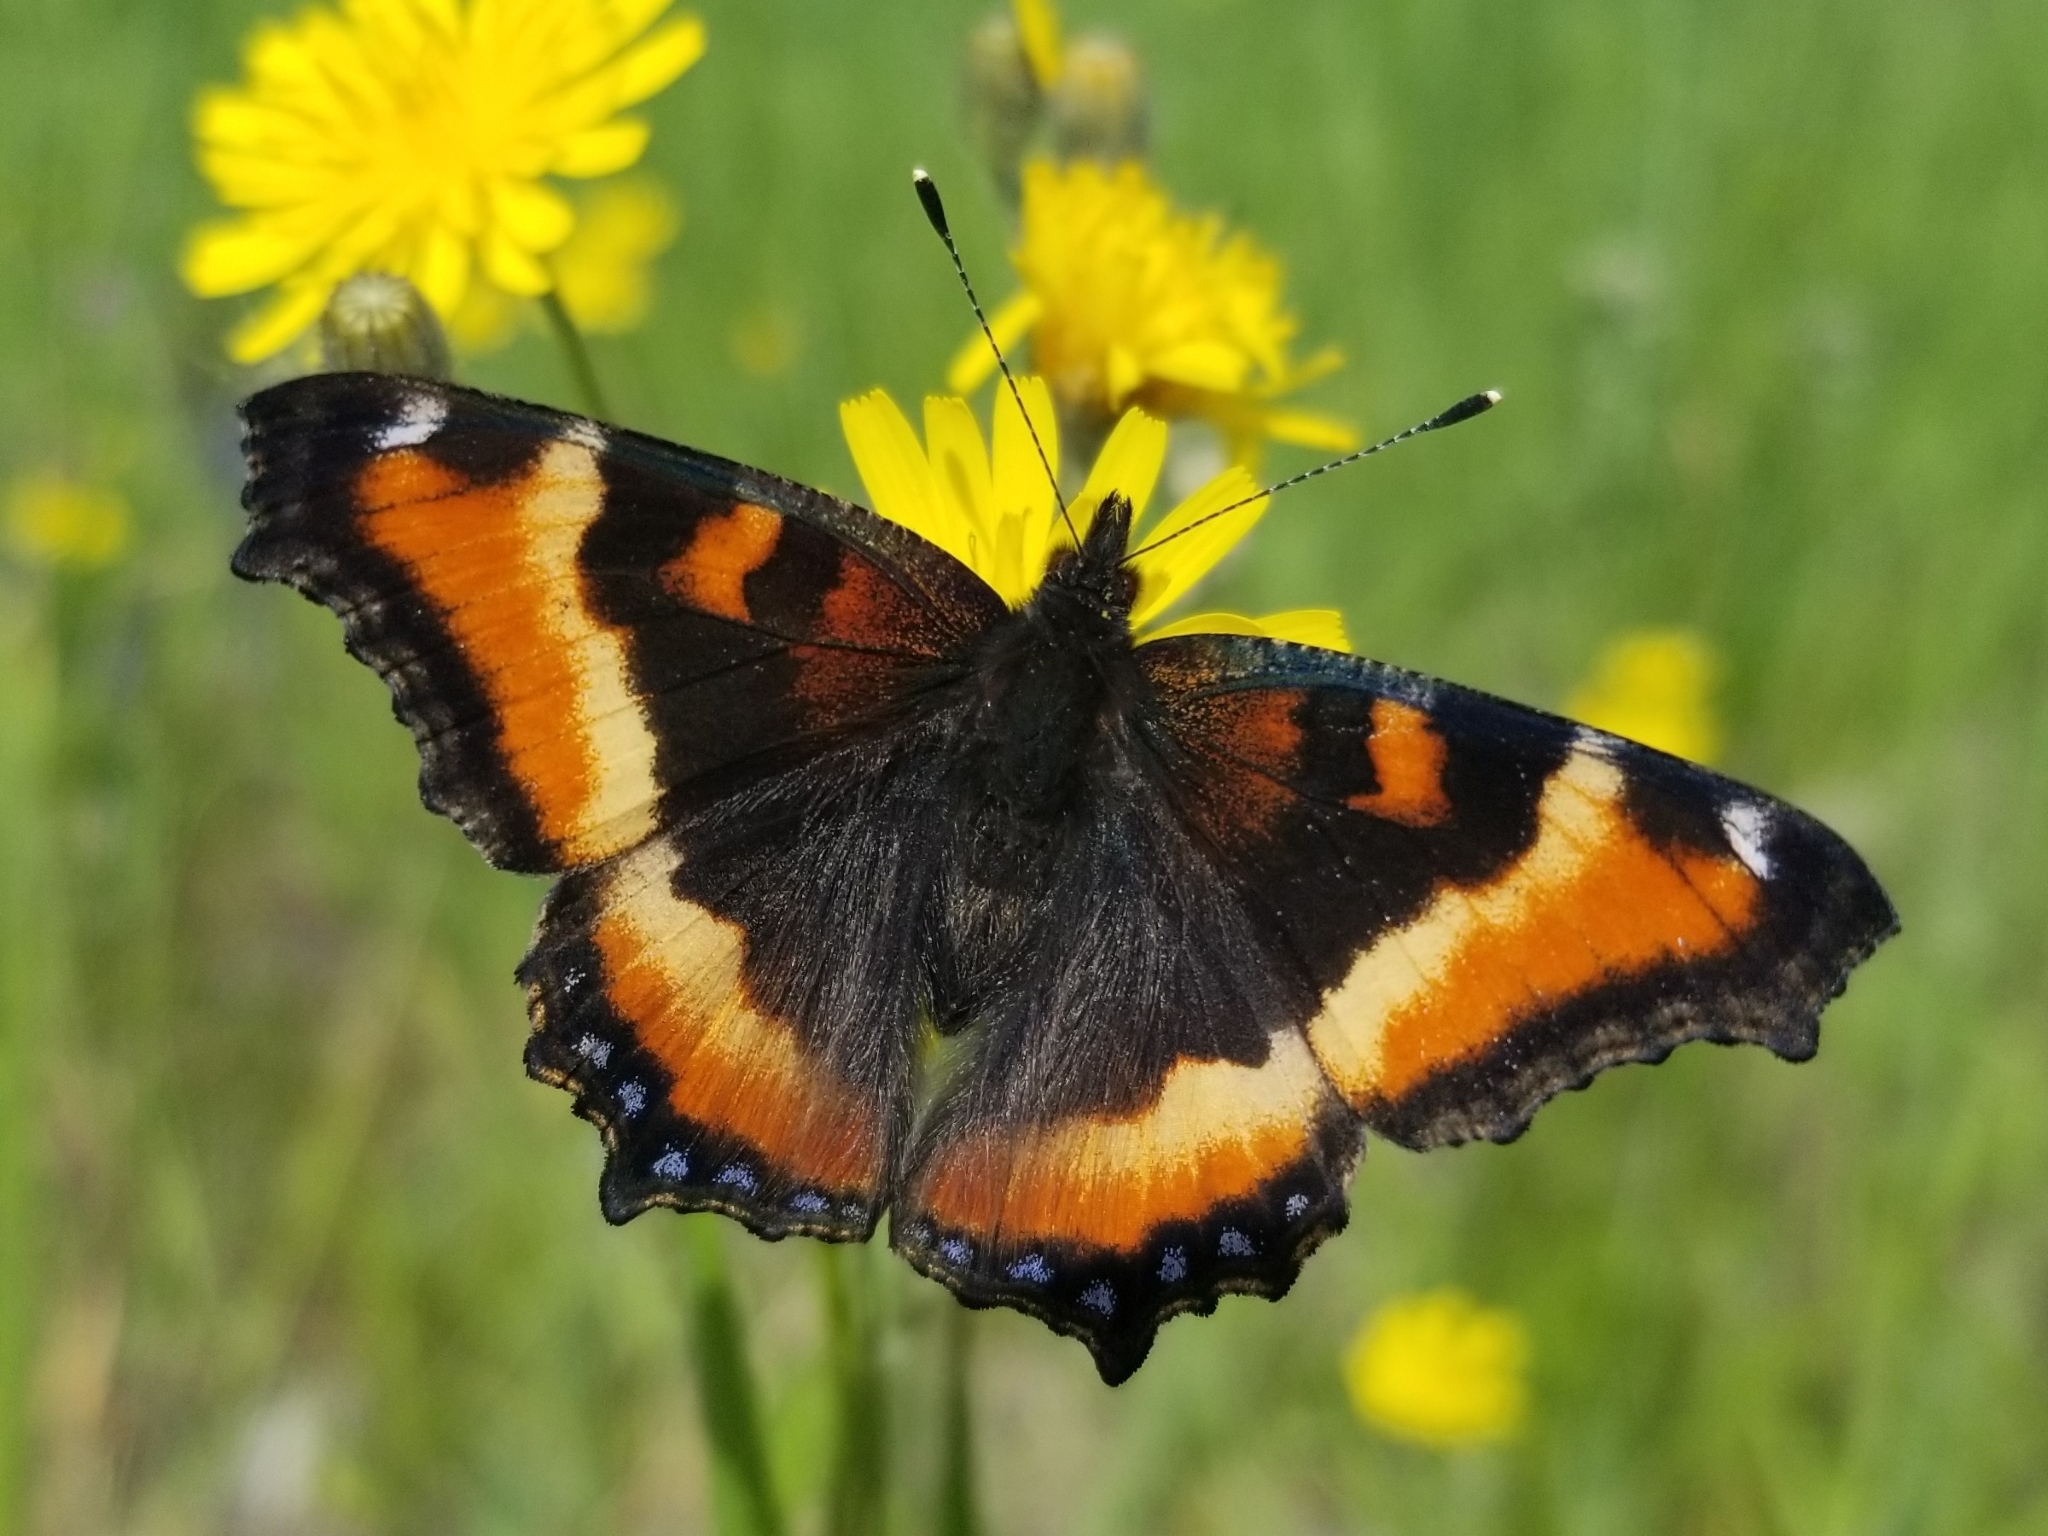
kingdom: Animalia
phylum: Arthropoda
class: Insecta
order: Lepidoptera
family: Nymphalidae
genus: Aglais
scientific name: Aglais milberti
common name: Milbert's tortoiseshell
